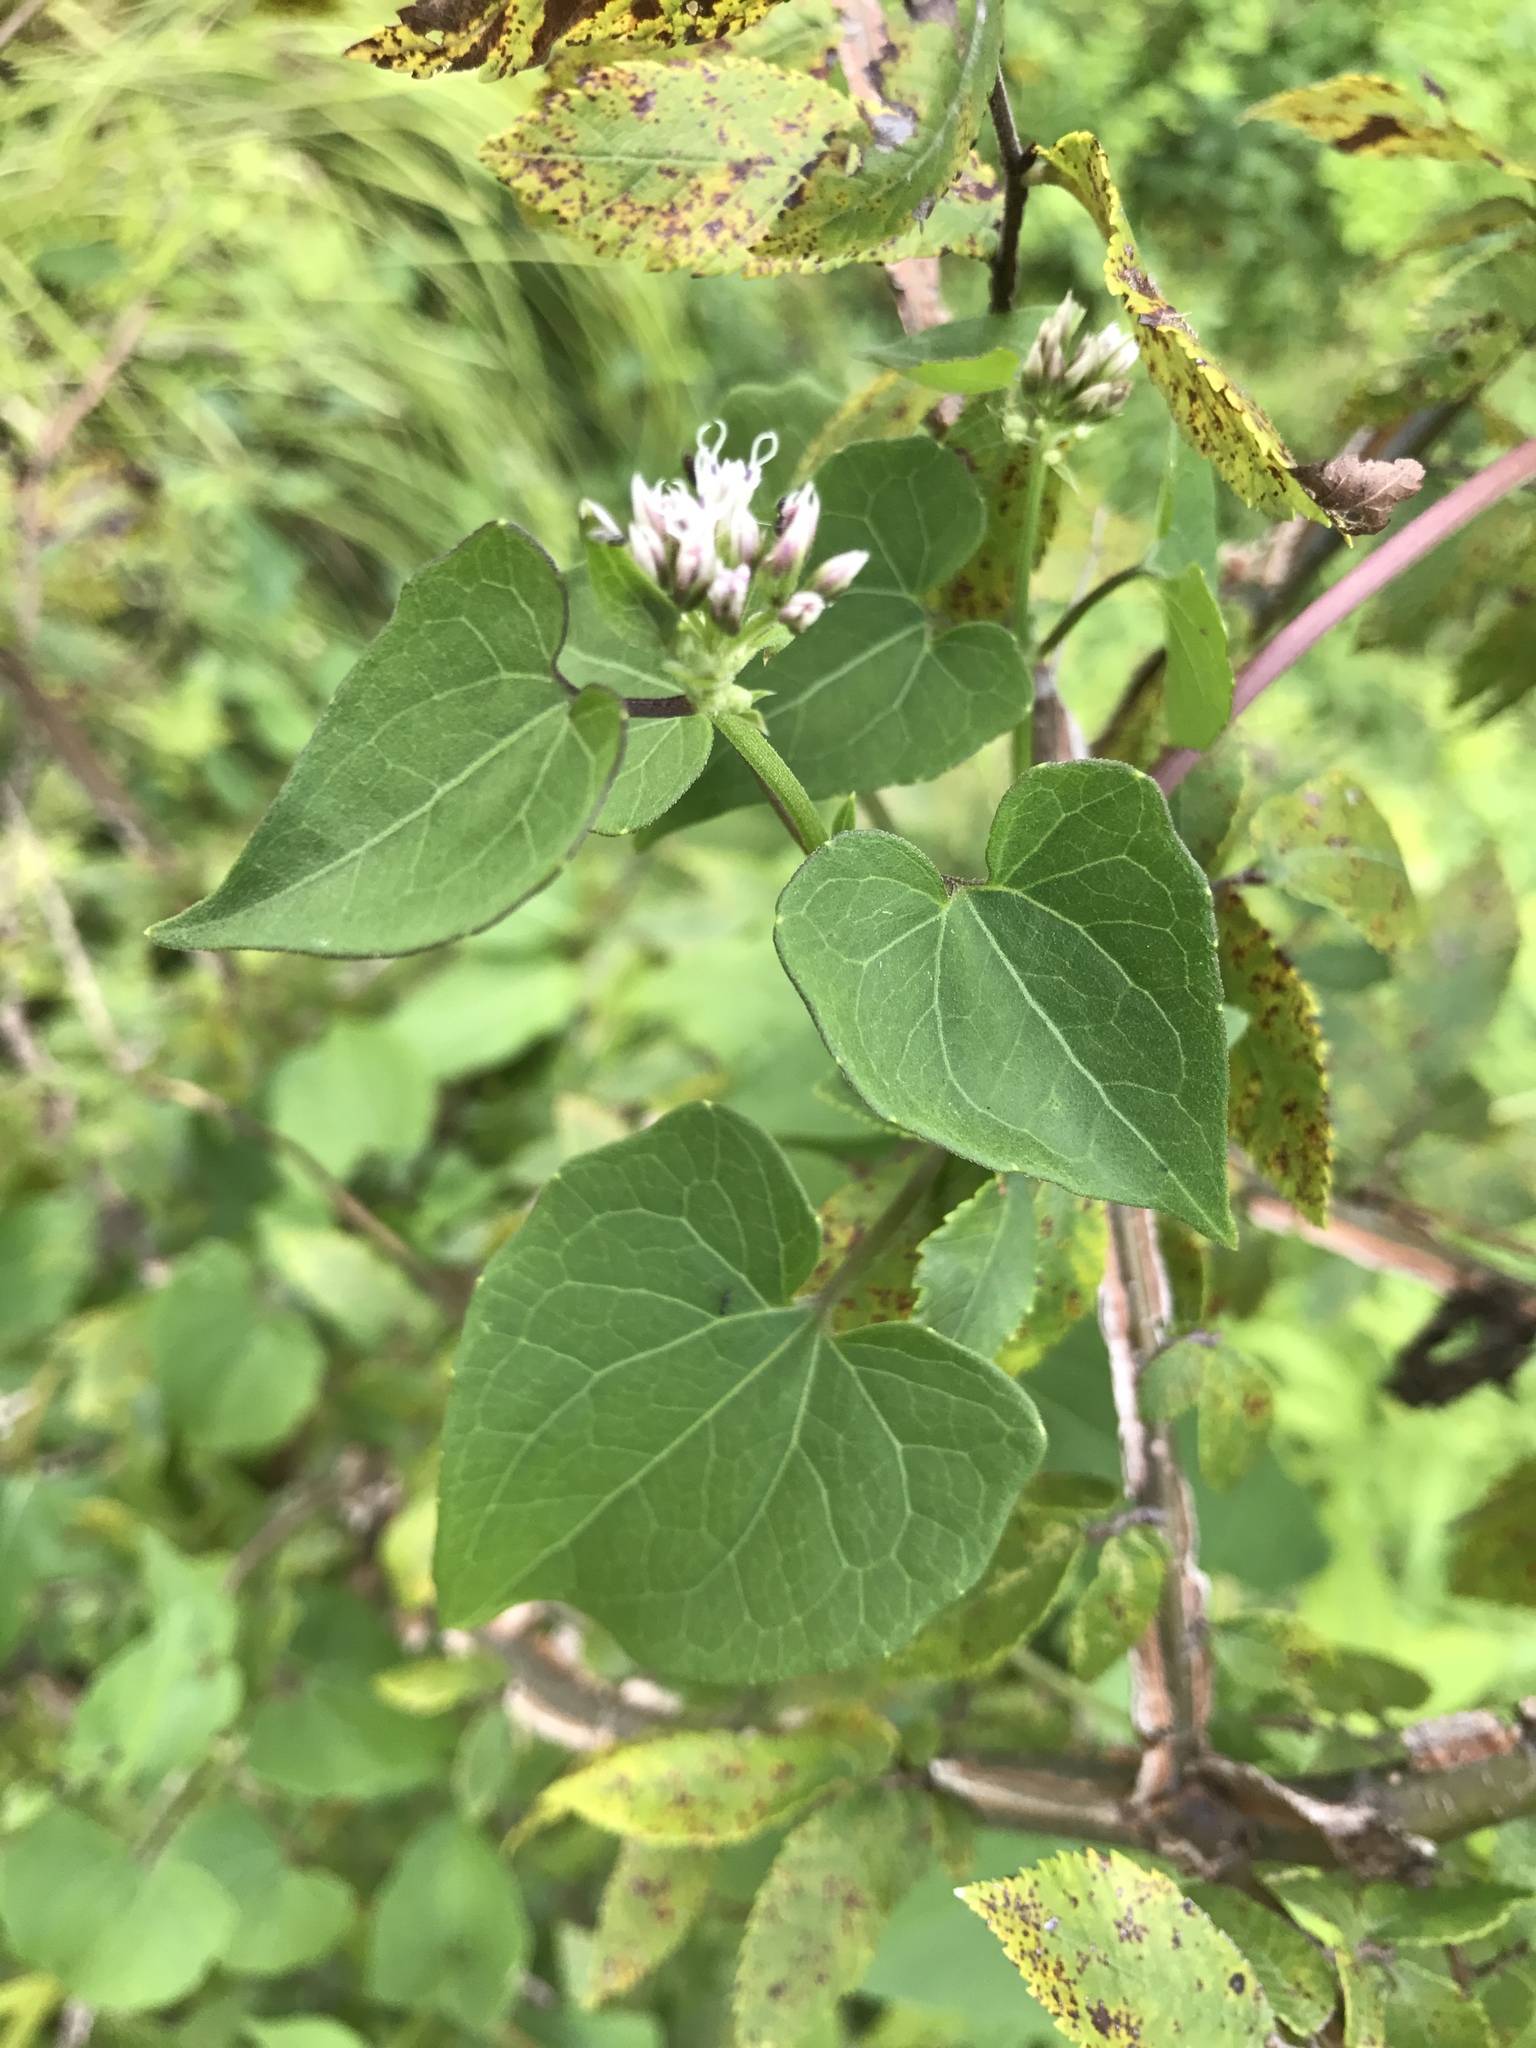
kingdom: Plantae
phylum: Tracheophyta
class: Magnoliopsida
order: Asterales
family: Asteraceae
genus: Mikania
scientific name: Mikania scandens
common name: Climbing hempvine
